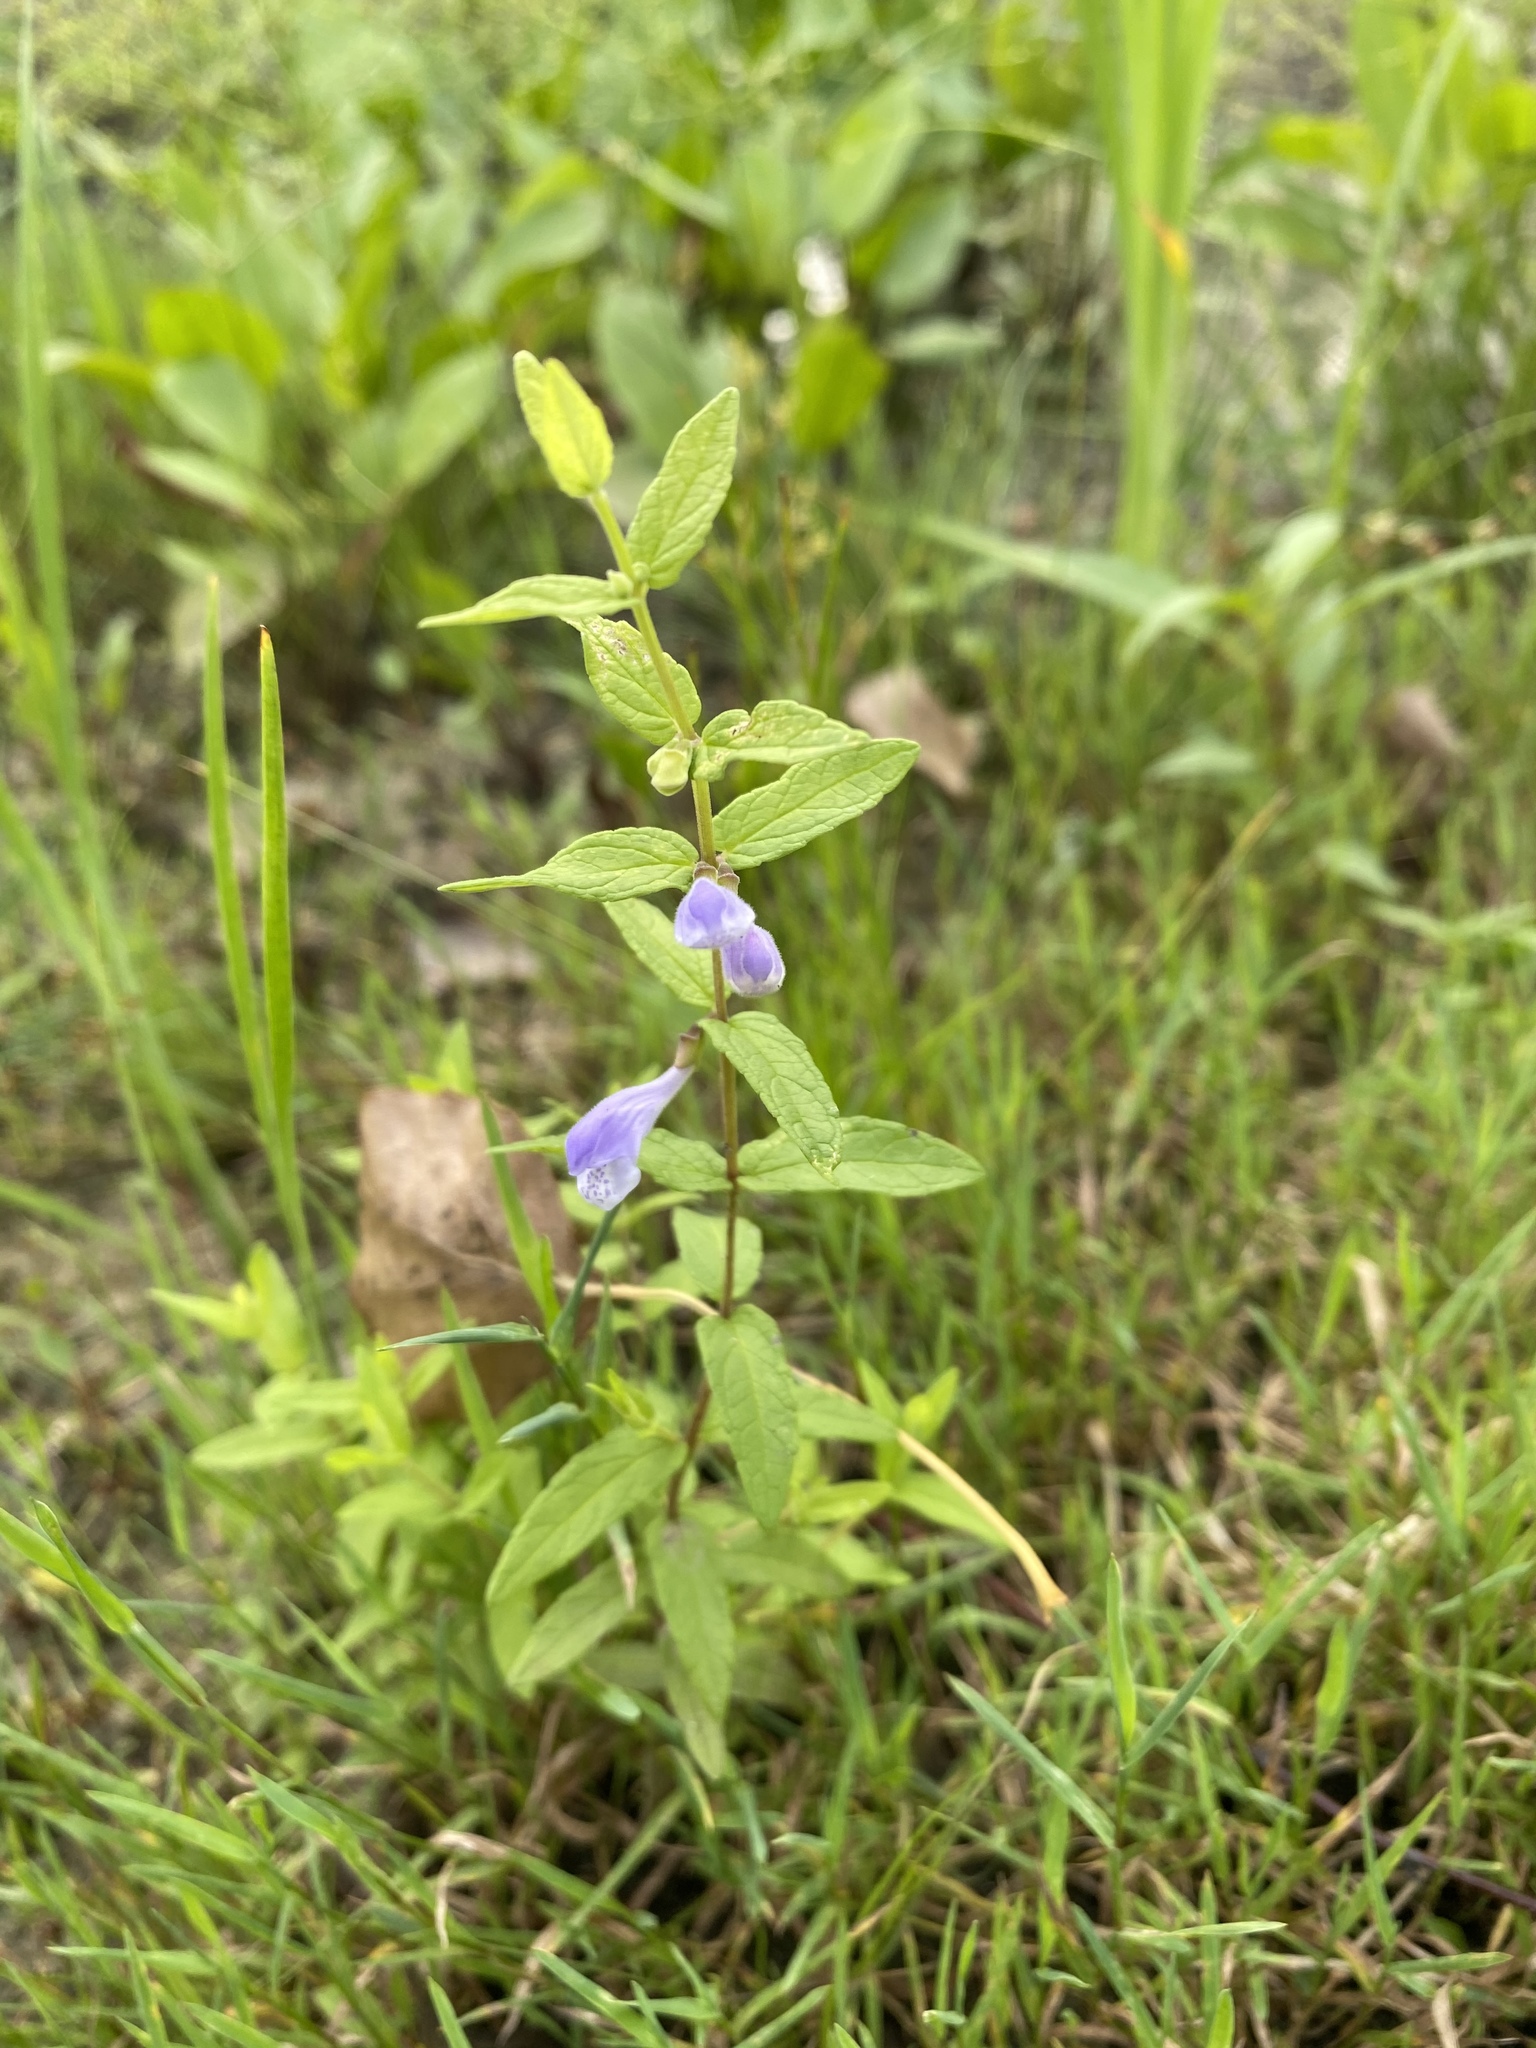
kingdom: Plantae
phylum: Tracheophyta
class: Magnoliopsida
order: Lamiales
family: Lamiaceae
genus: Scutellaria
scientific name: Scutellaria galericulata
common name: Skullcap
